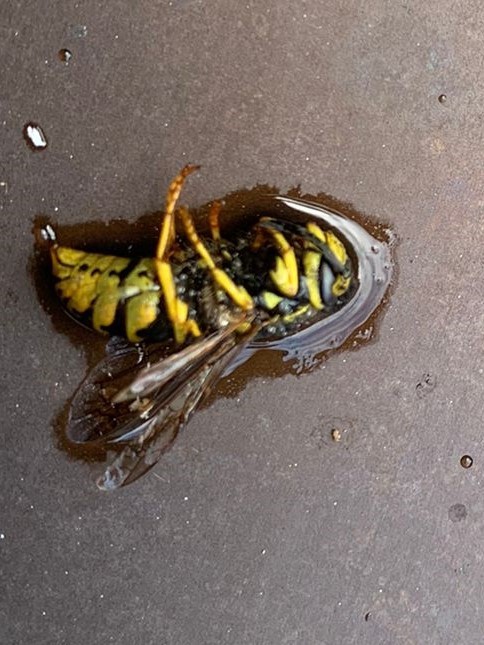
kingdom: Animalia
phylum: Arthropoda
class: Insecta
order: Hymenoptera
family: Vespidae
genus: Vespula
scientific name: Vespula germanica
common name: German wasp
